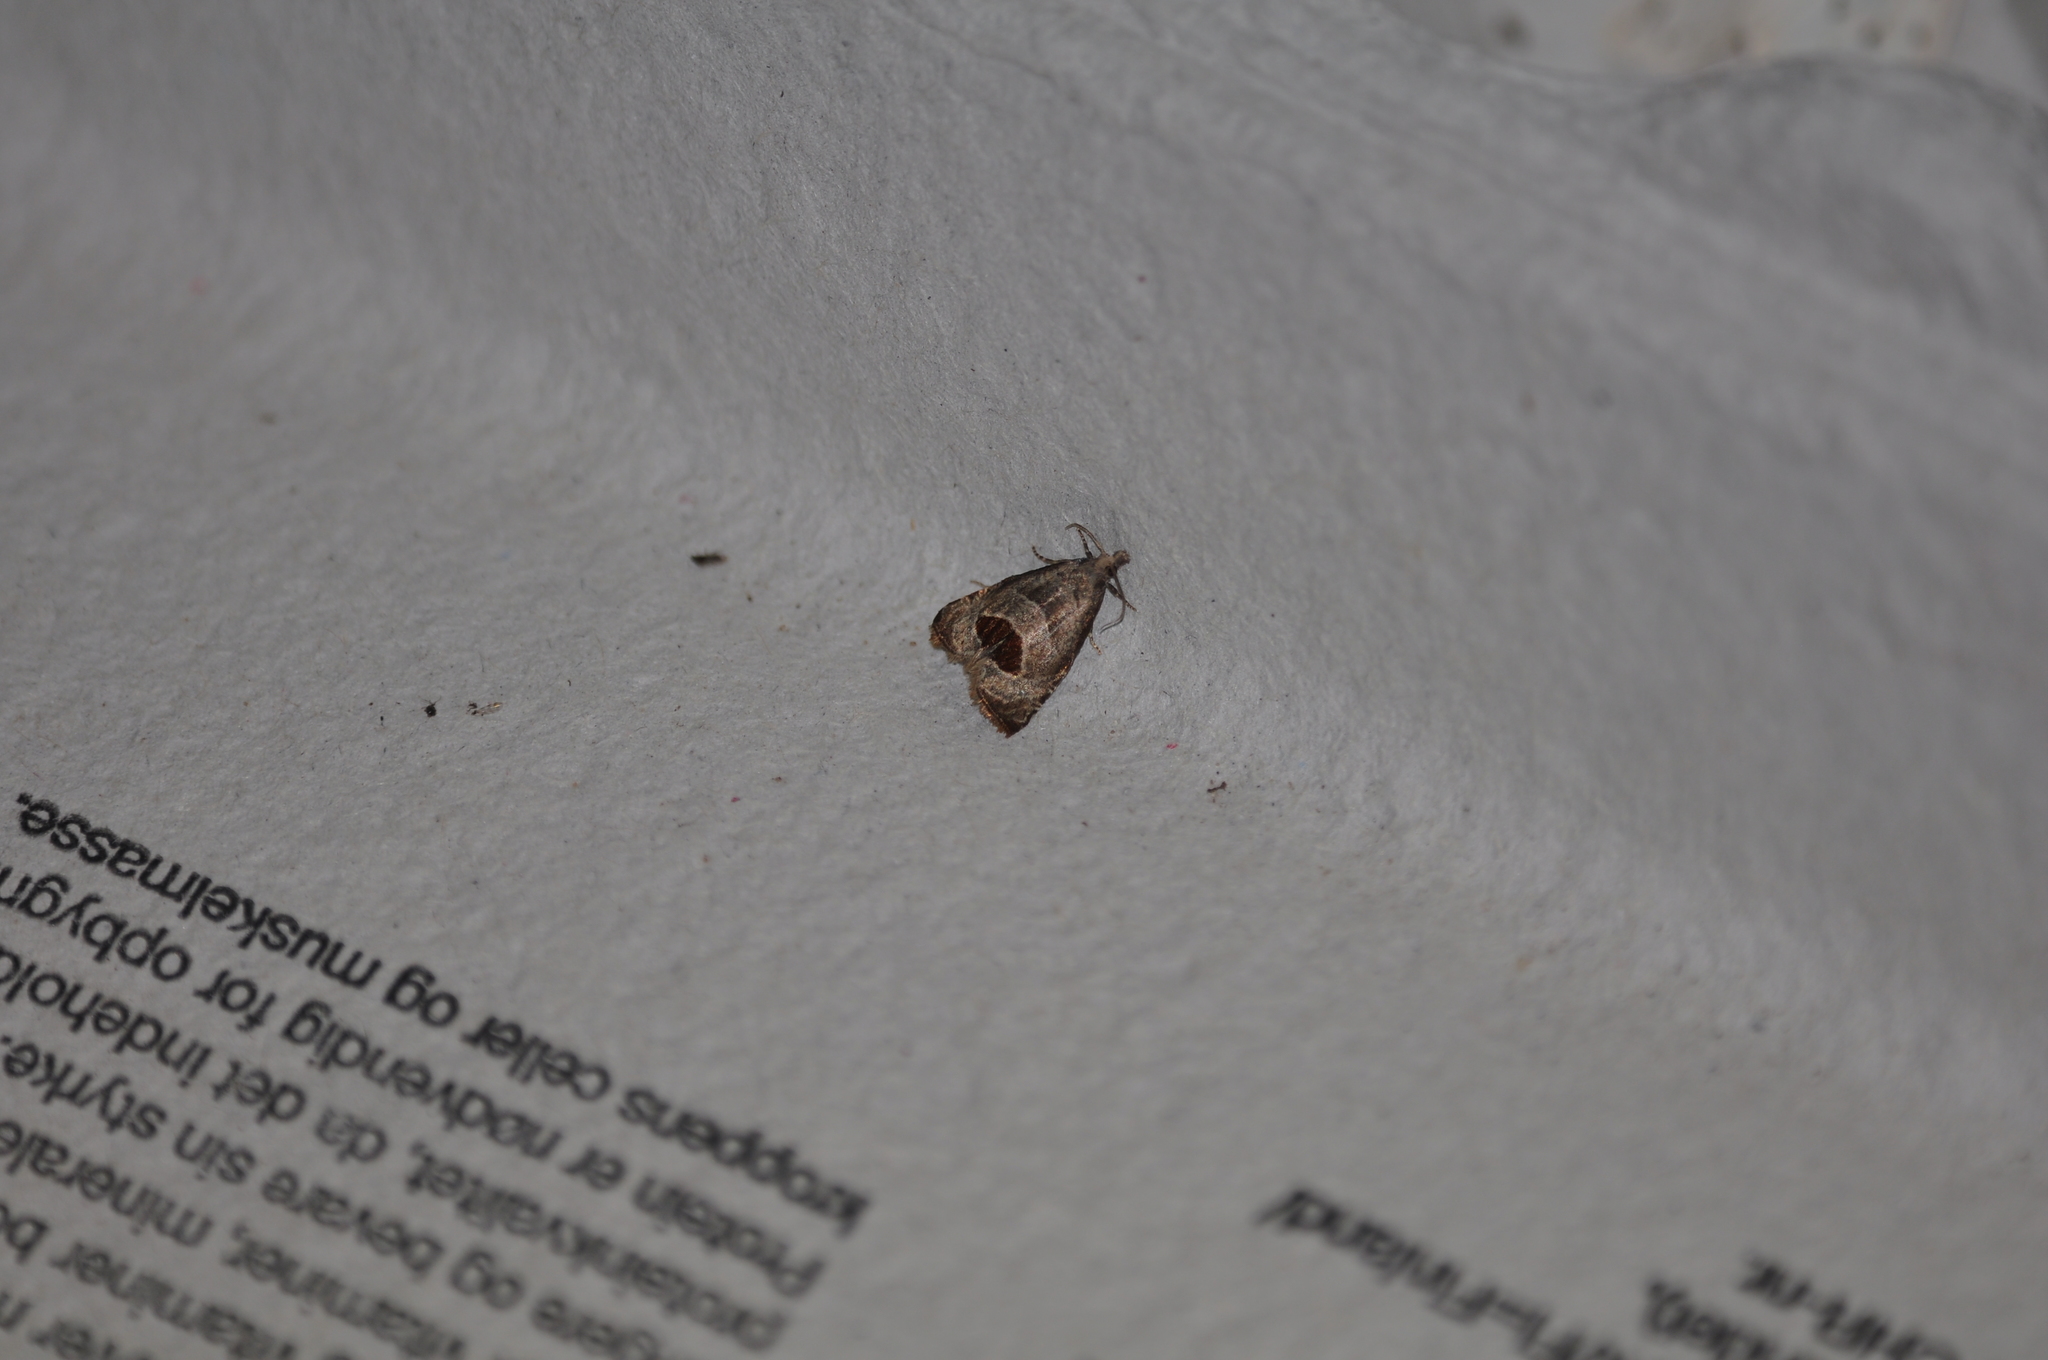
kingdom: Animalia
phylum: Arthropoda
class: Insecta
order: Lepidoptera
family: Tortricidae
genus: Notocelia
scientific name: Notocelia uddmanniana
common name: Bramble shoot moth
